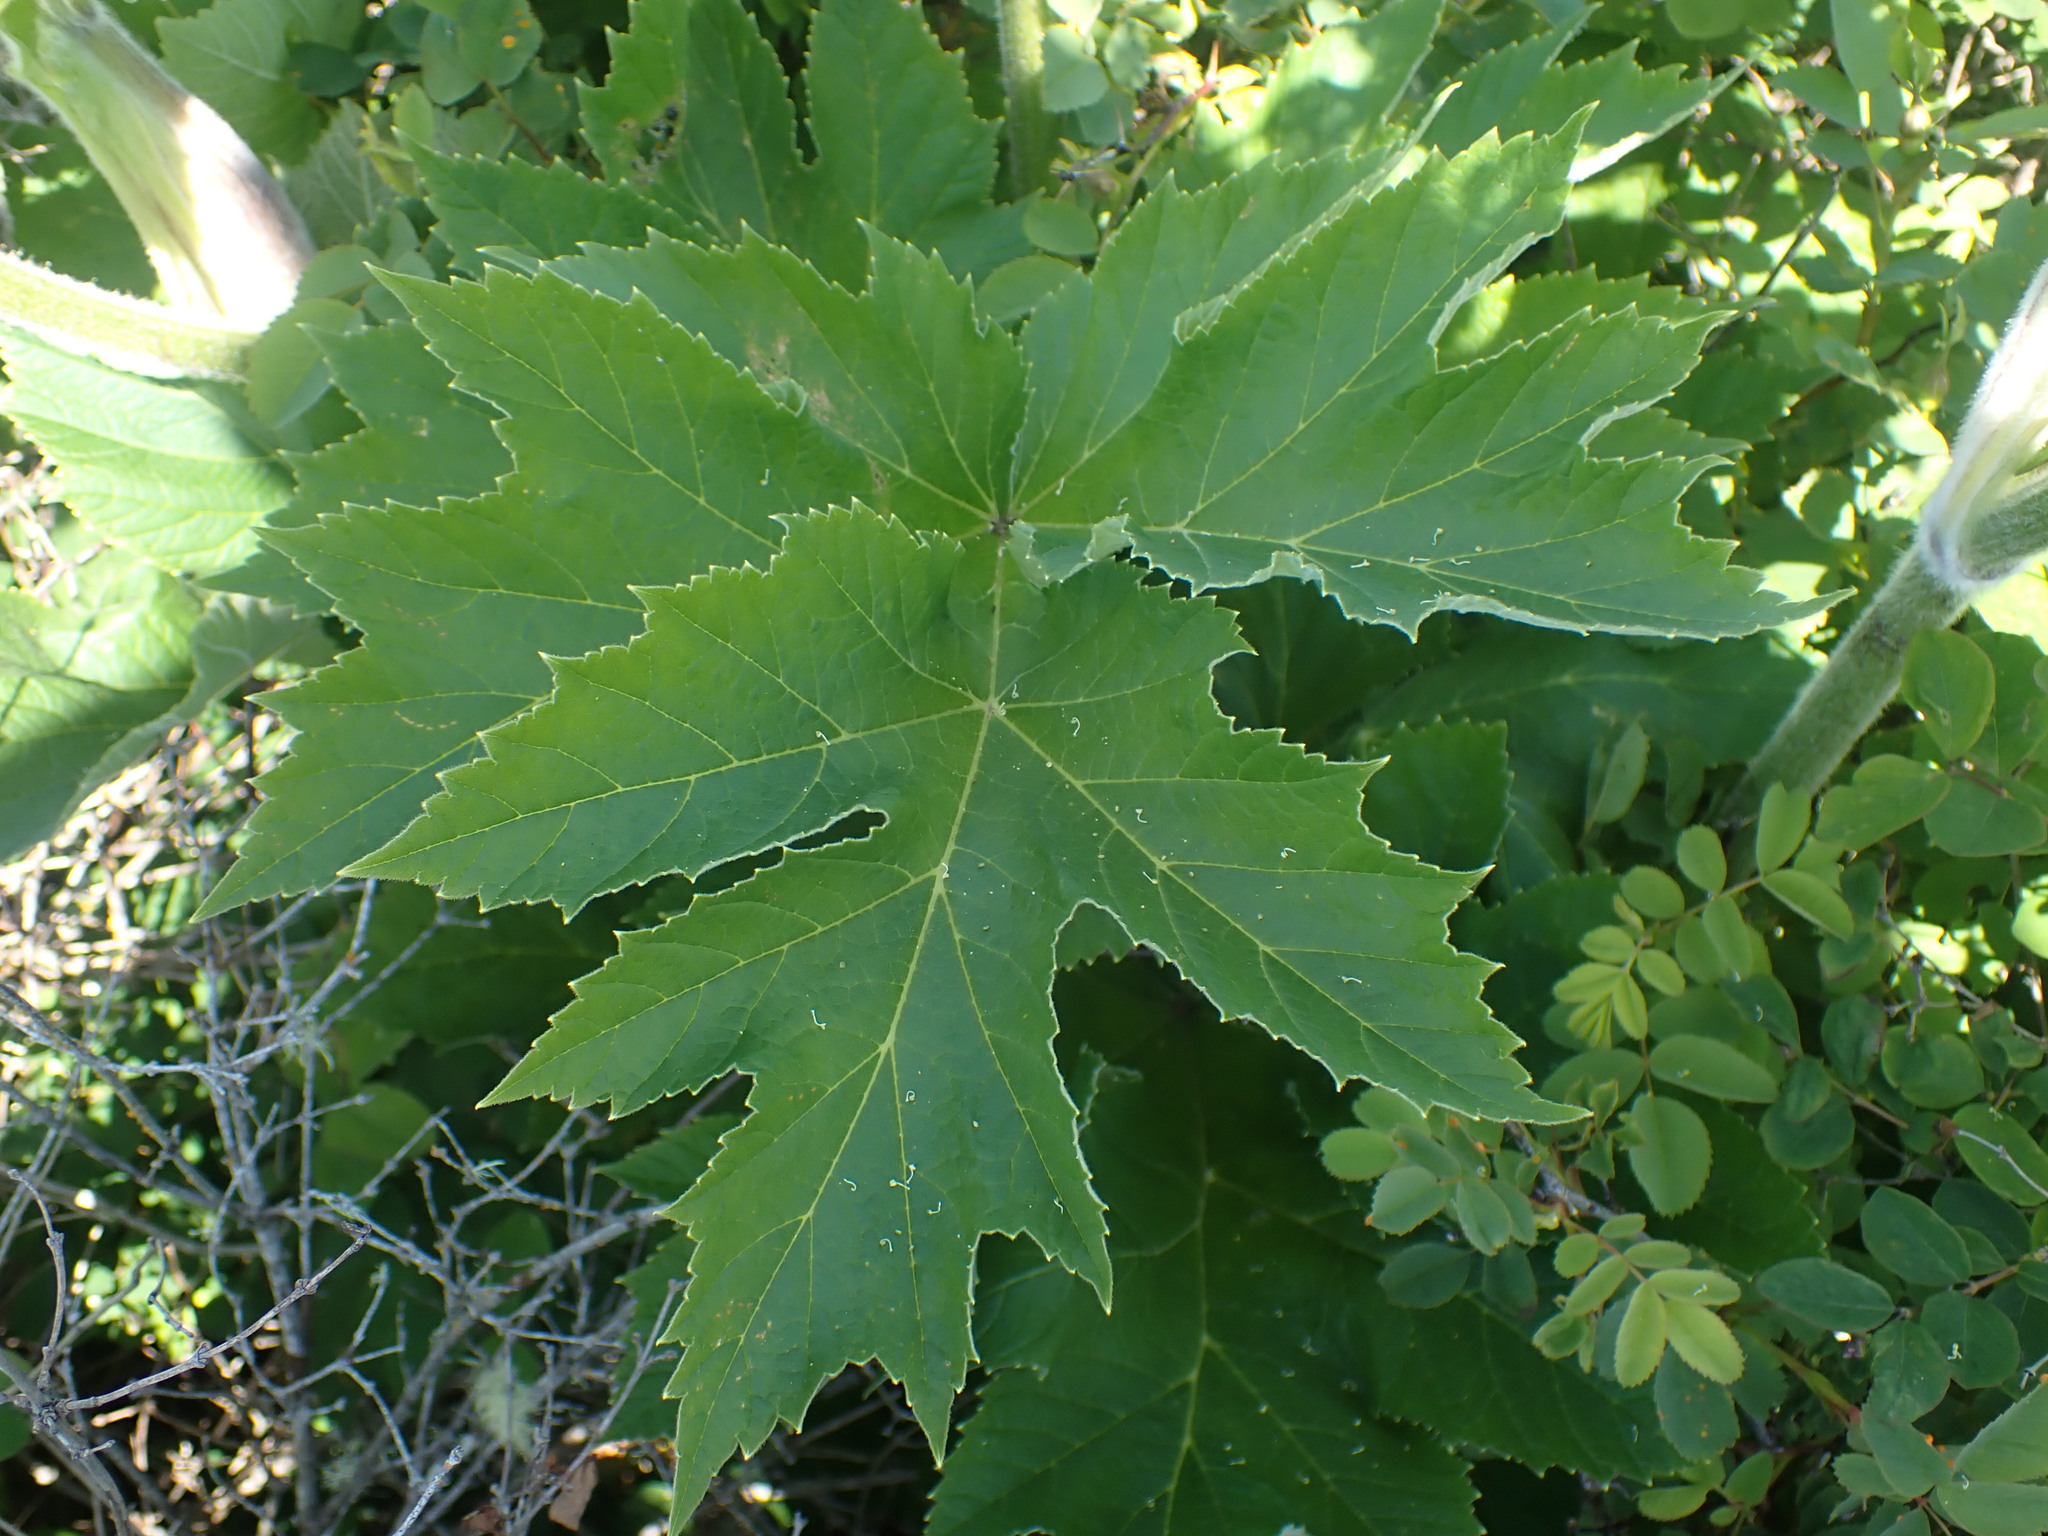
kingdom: Plantae
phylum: Tracheophyta
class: Magnoliopsida
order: Apiales
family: Apiaceae
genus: Heracleum
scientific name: Heracleum maximum
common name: American cow parsnip
